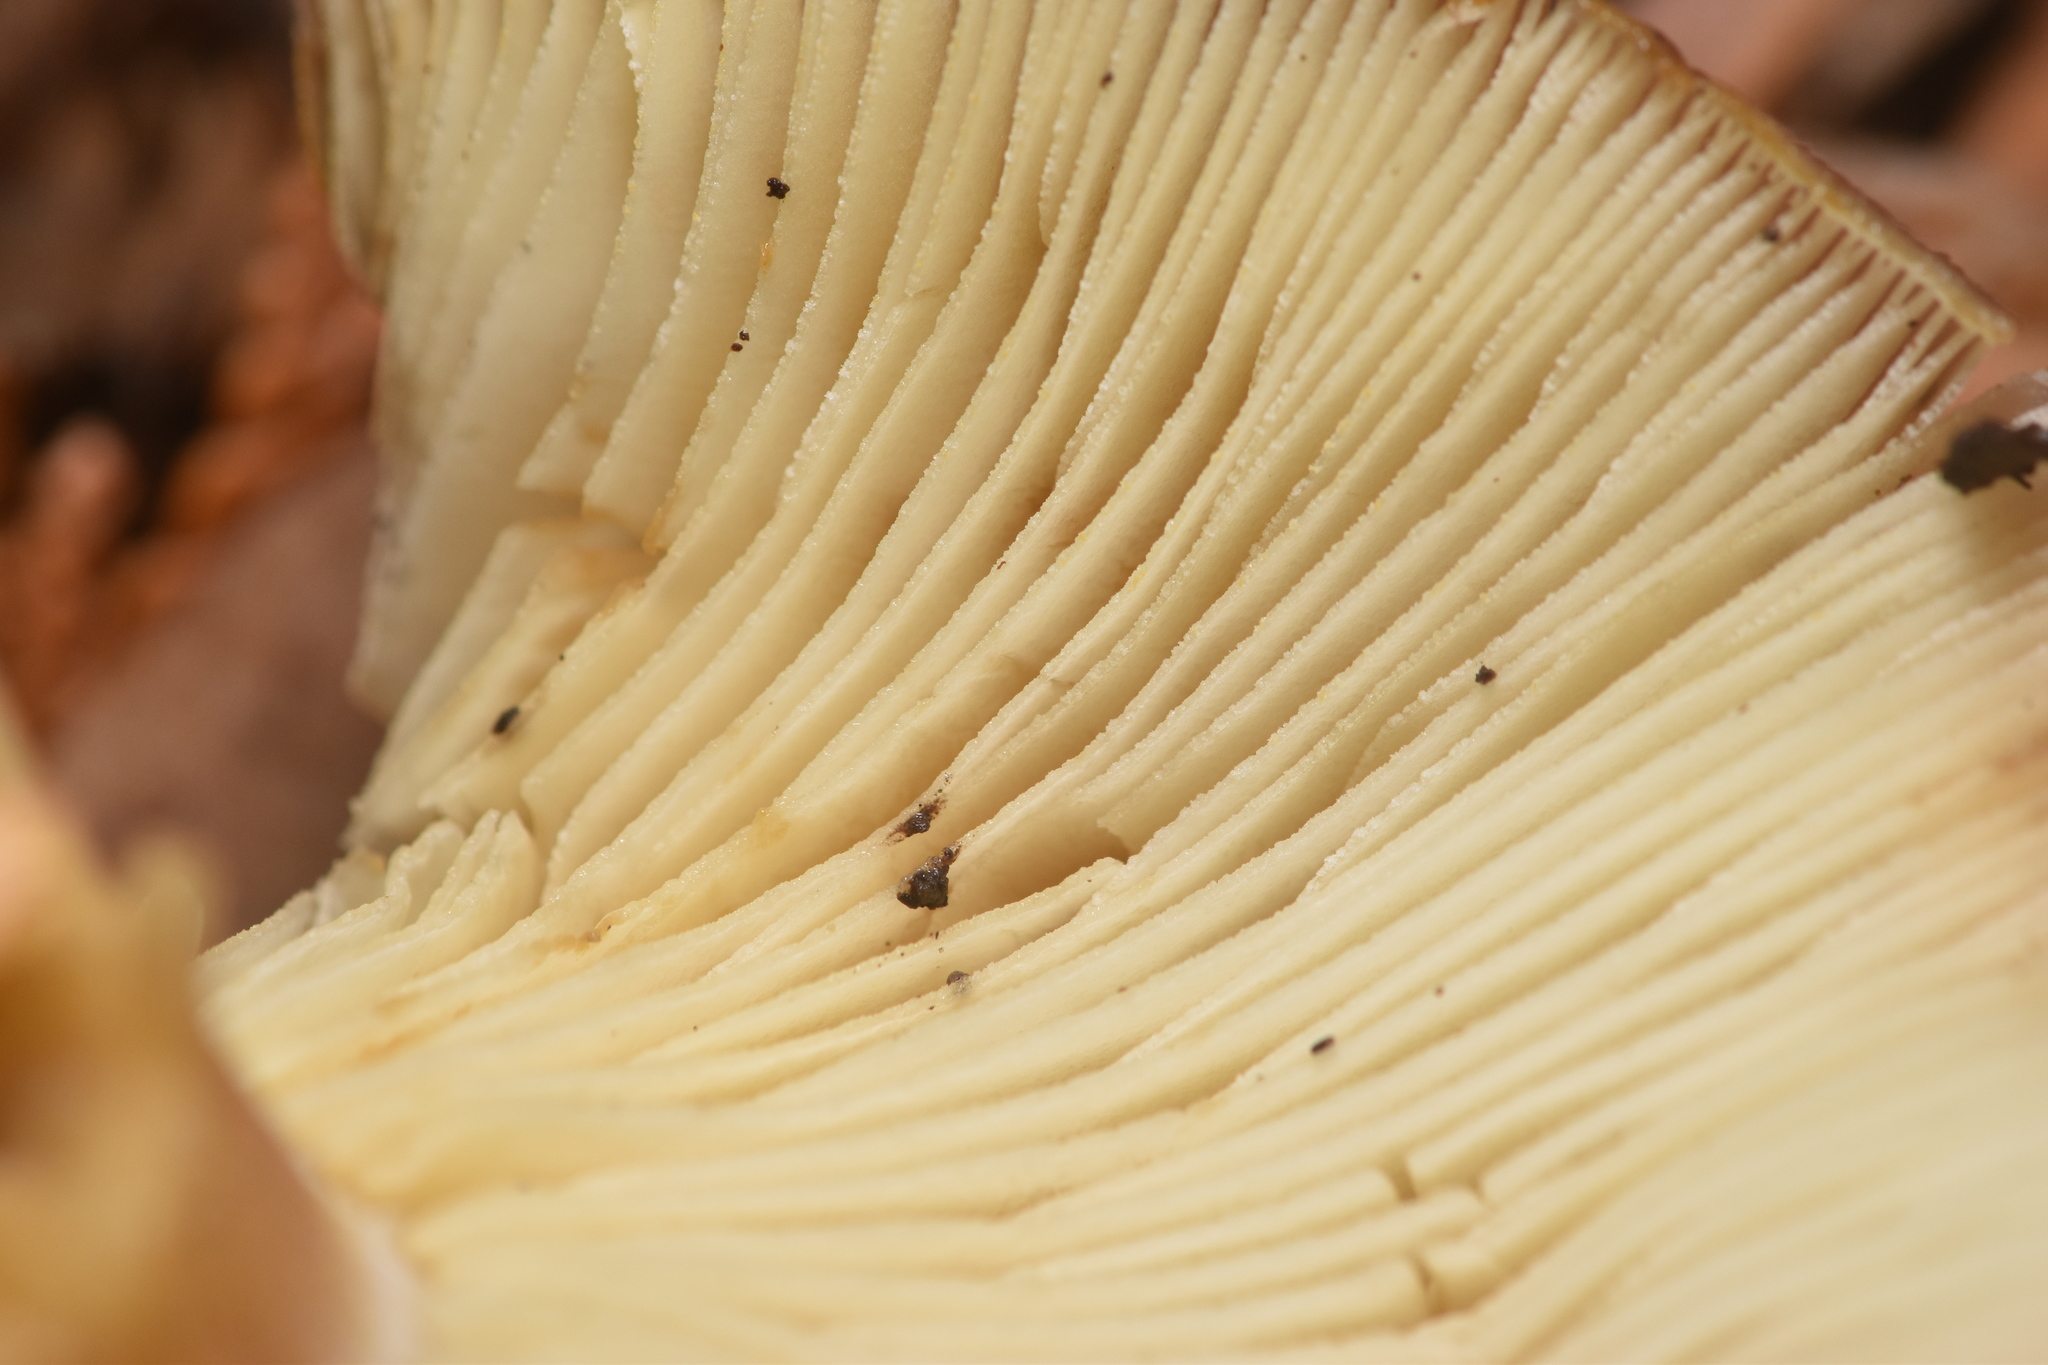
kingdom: Fungi
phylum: Basidiomycota
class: Agaricomycetes
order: Agaricales
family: Tricholomataceae
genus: Tricholomopsis
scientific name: Tricholomopsis rutilans
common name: Plums and custard
